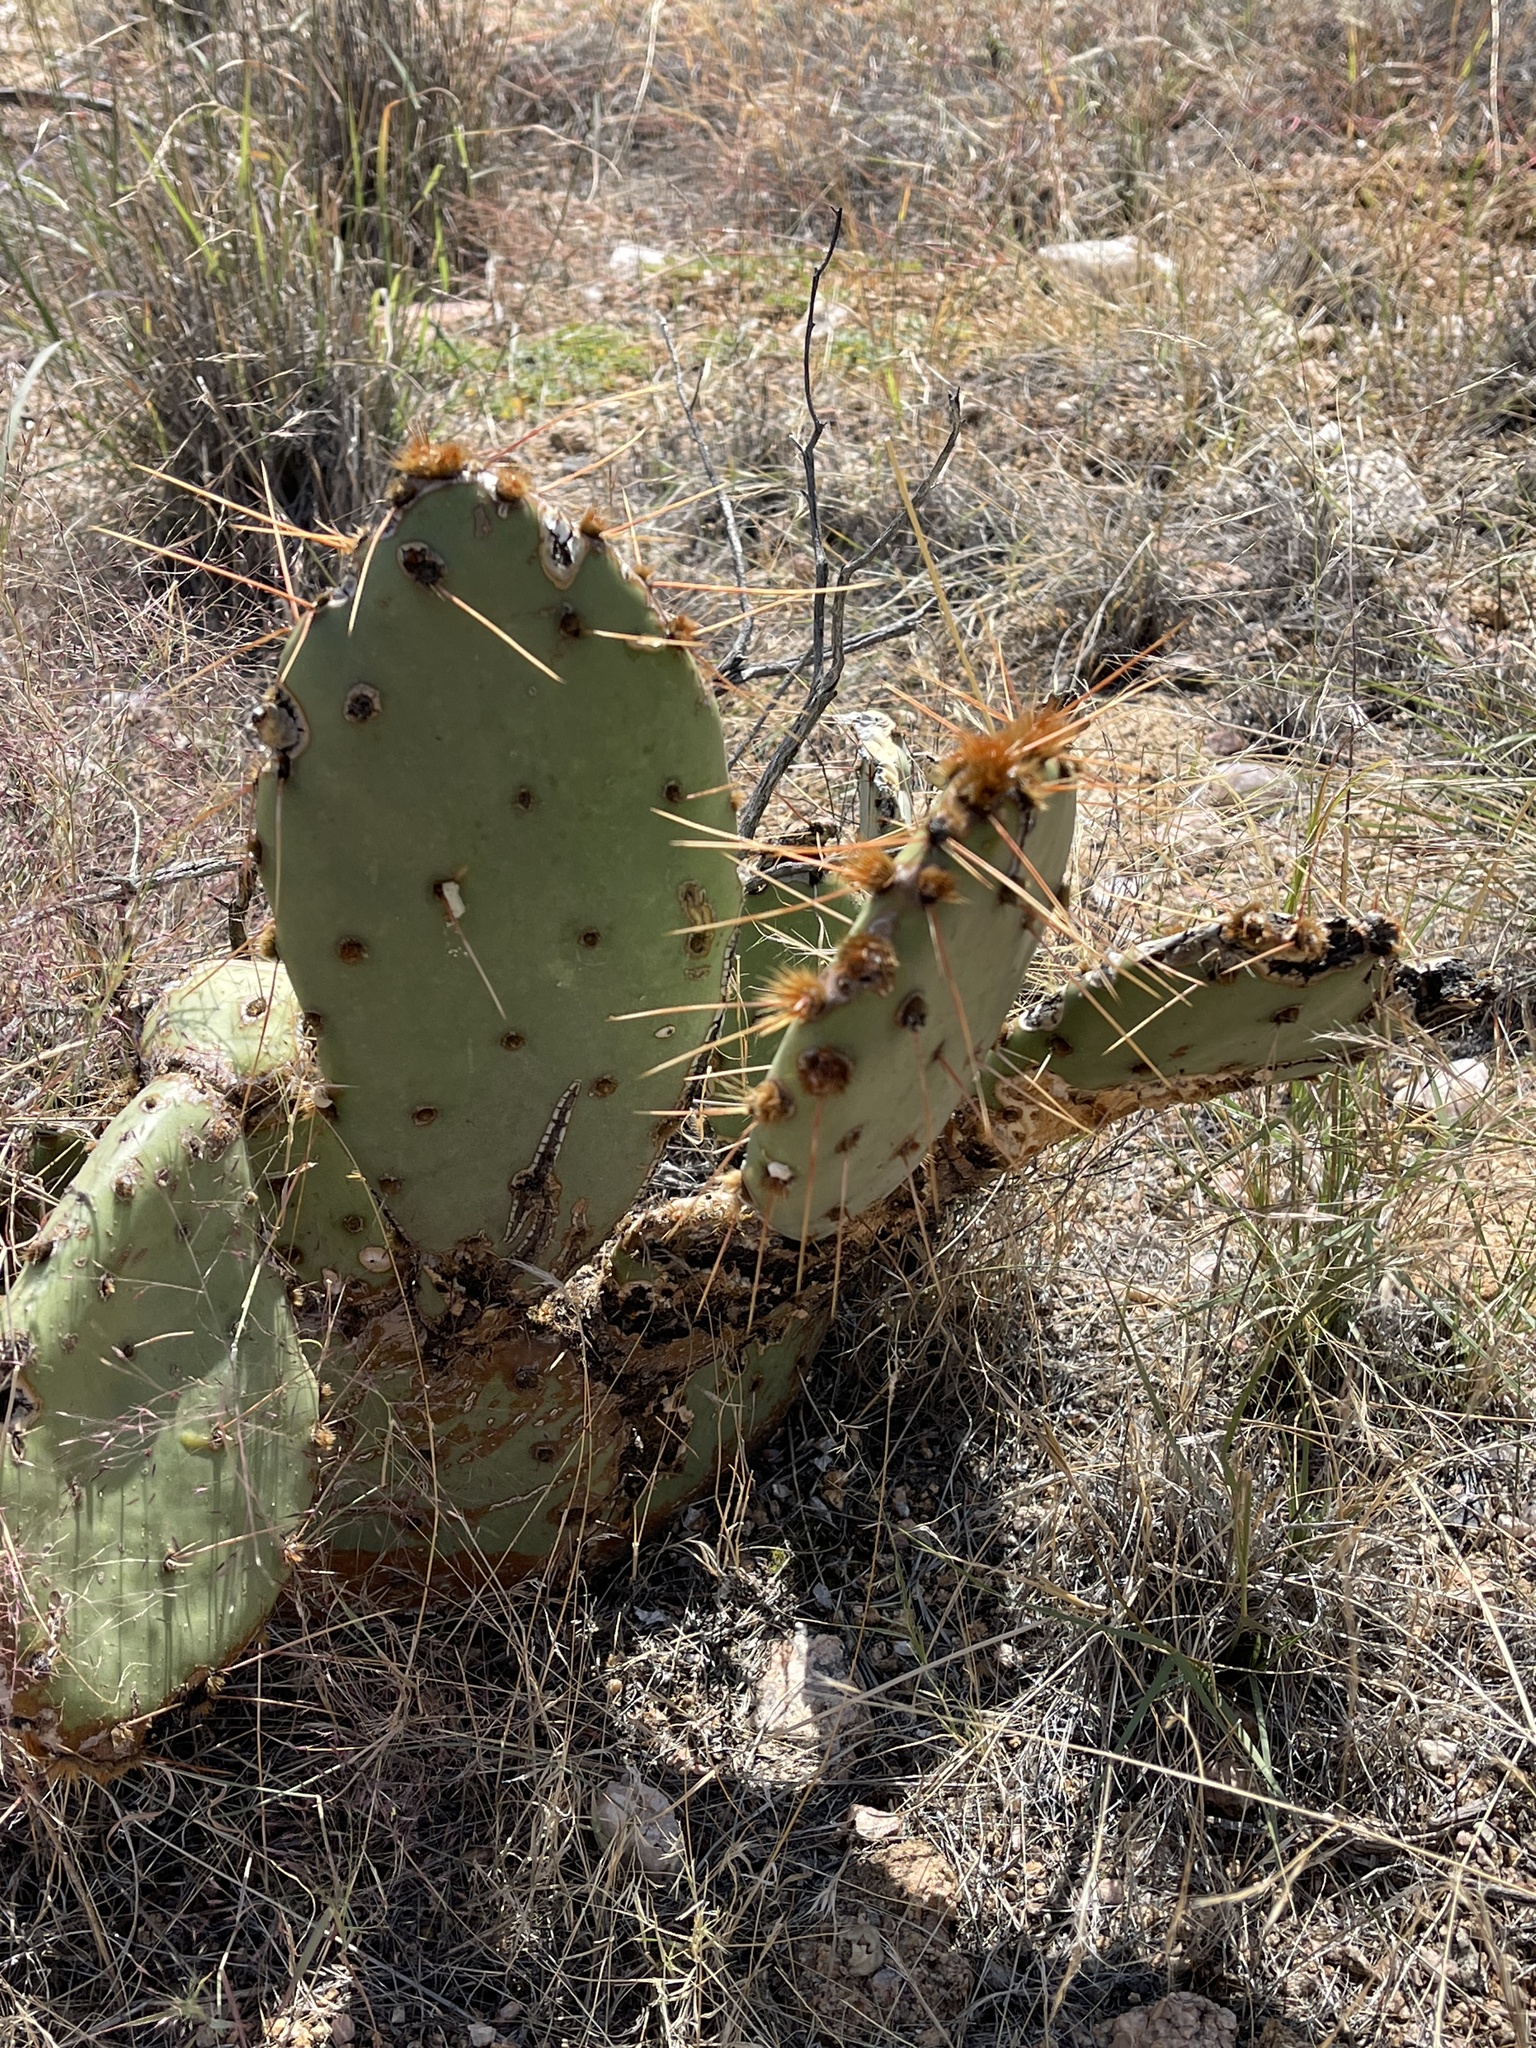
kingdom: Plantae
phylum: Tracheophyta
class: Magnoliopsida
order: Caryophyllales
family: Cactaceae
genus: Opuntia
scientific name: Opuntia phaeacantha
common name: New mexico prickly-pear
